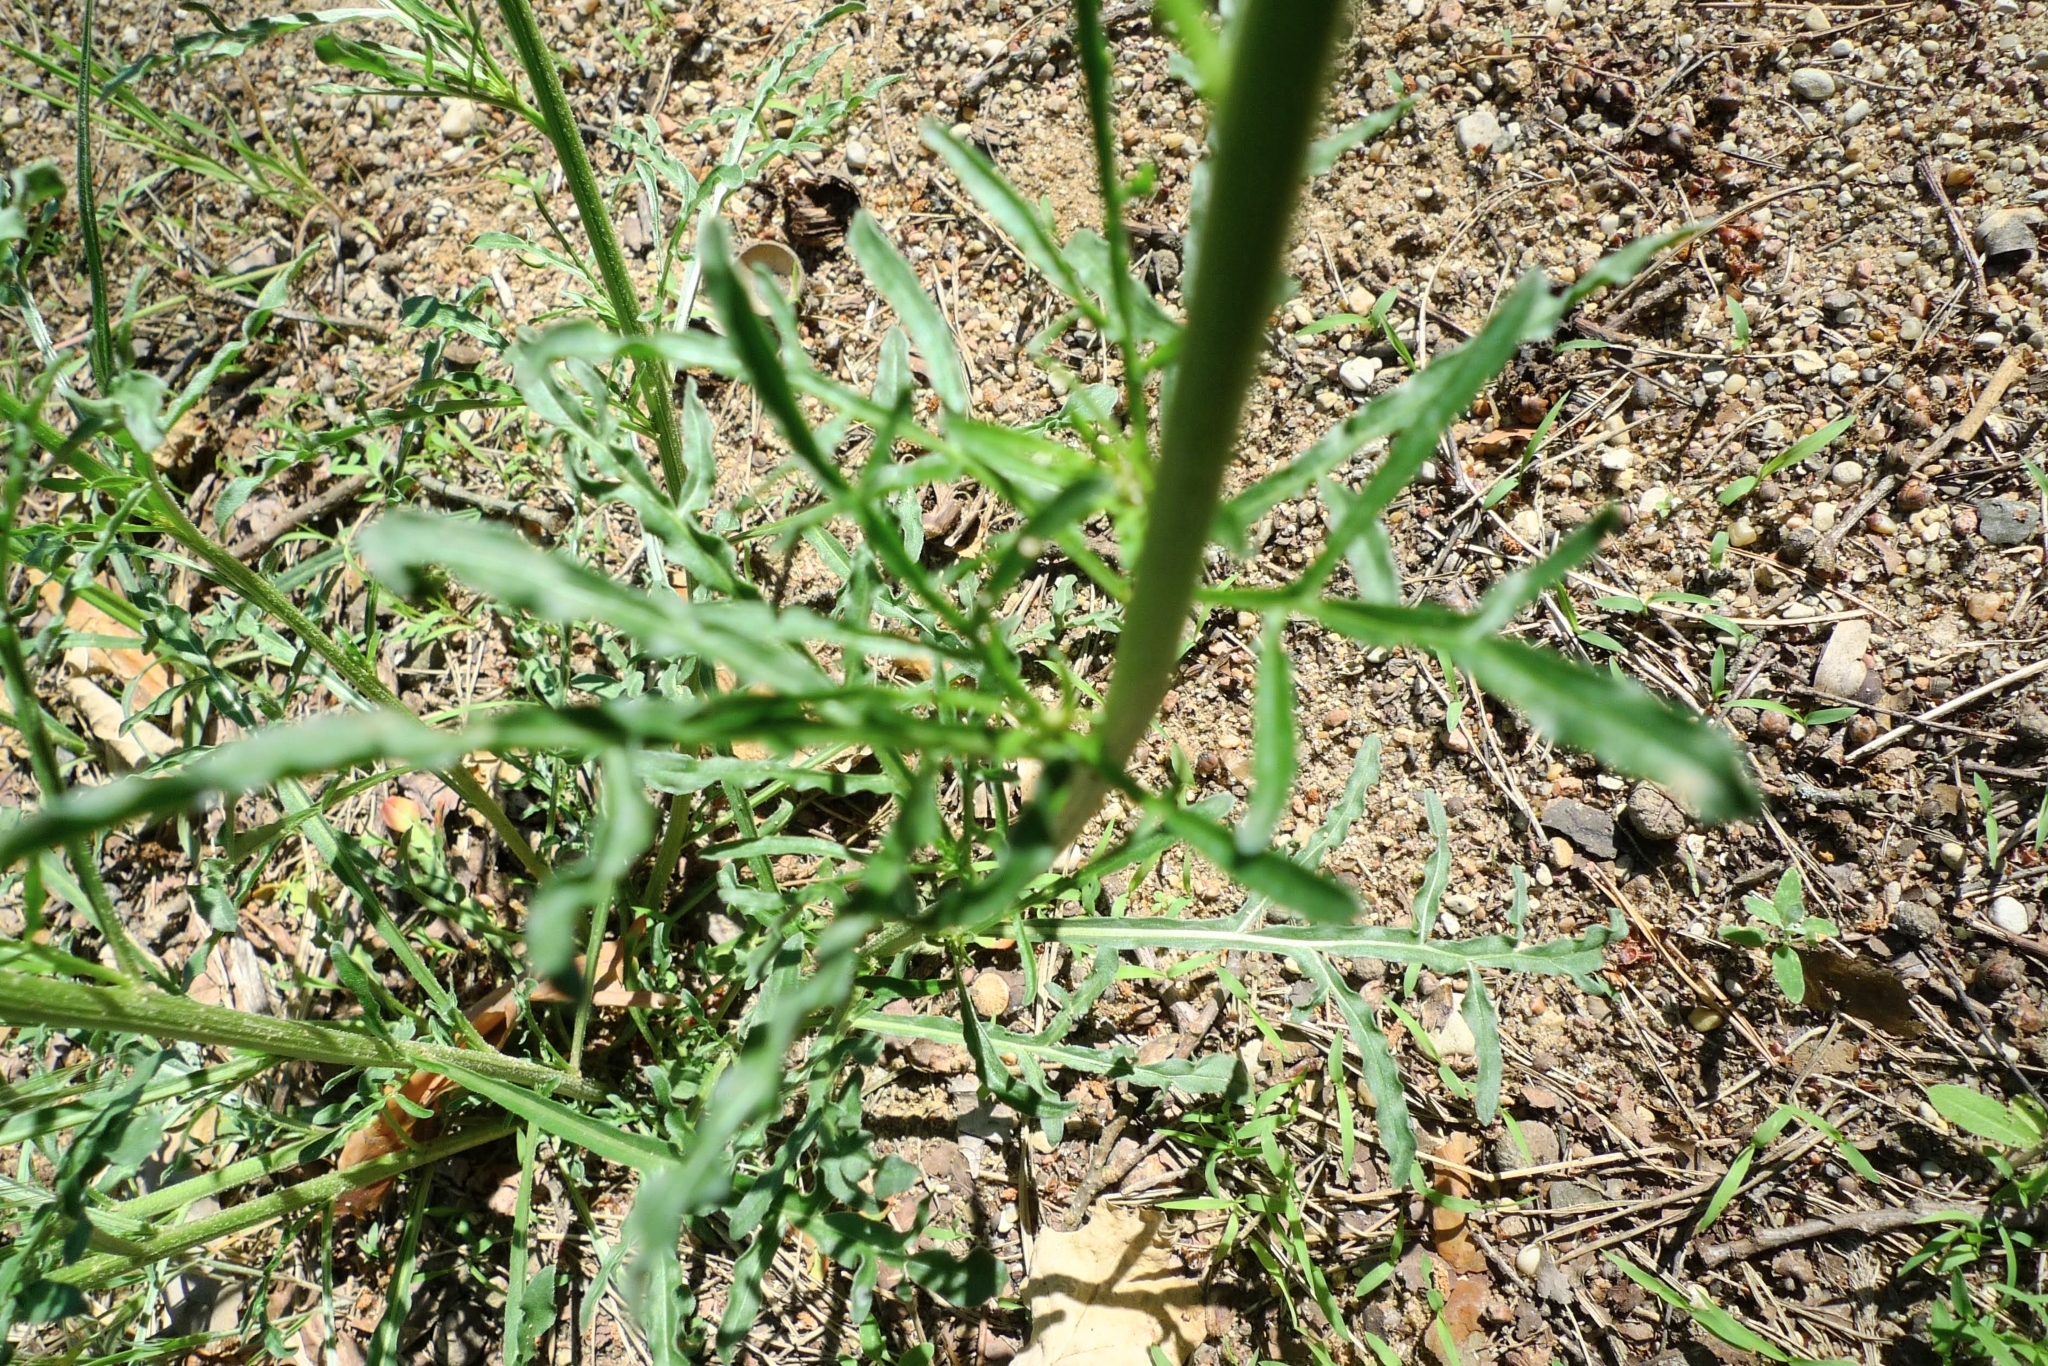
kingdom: Plantae
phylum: Tracheophyta
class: Magnoliopsida
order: Brassicales
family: Resedaceae
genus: Reseda
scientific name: Reseda lutea
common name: Wild mignonette
